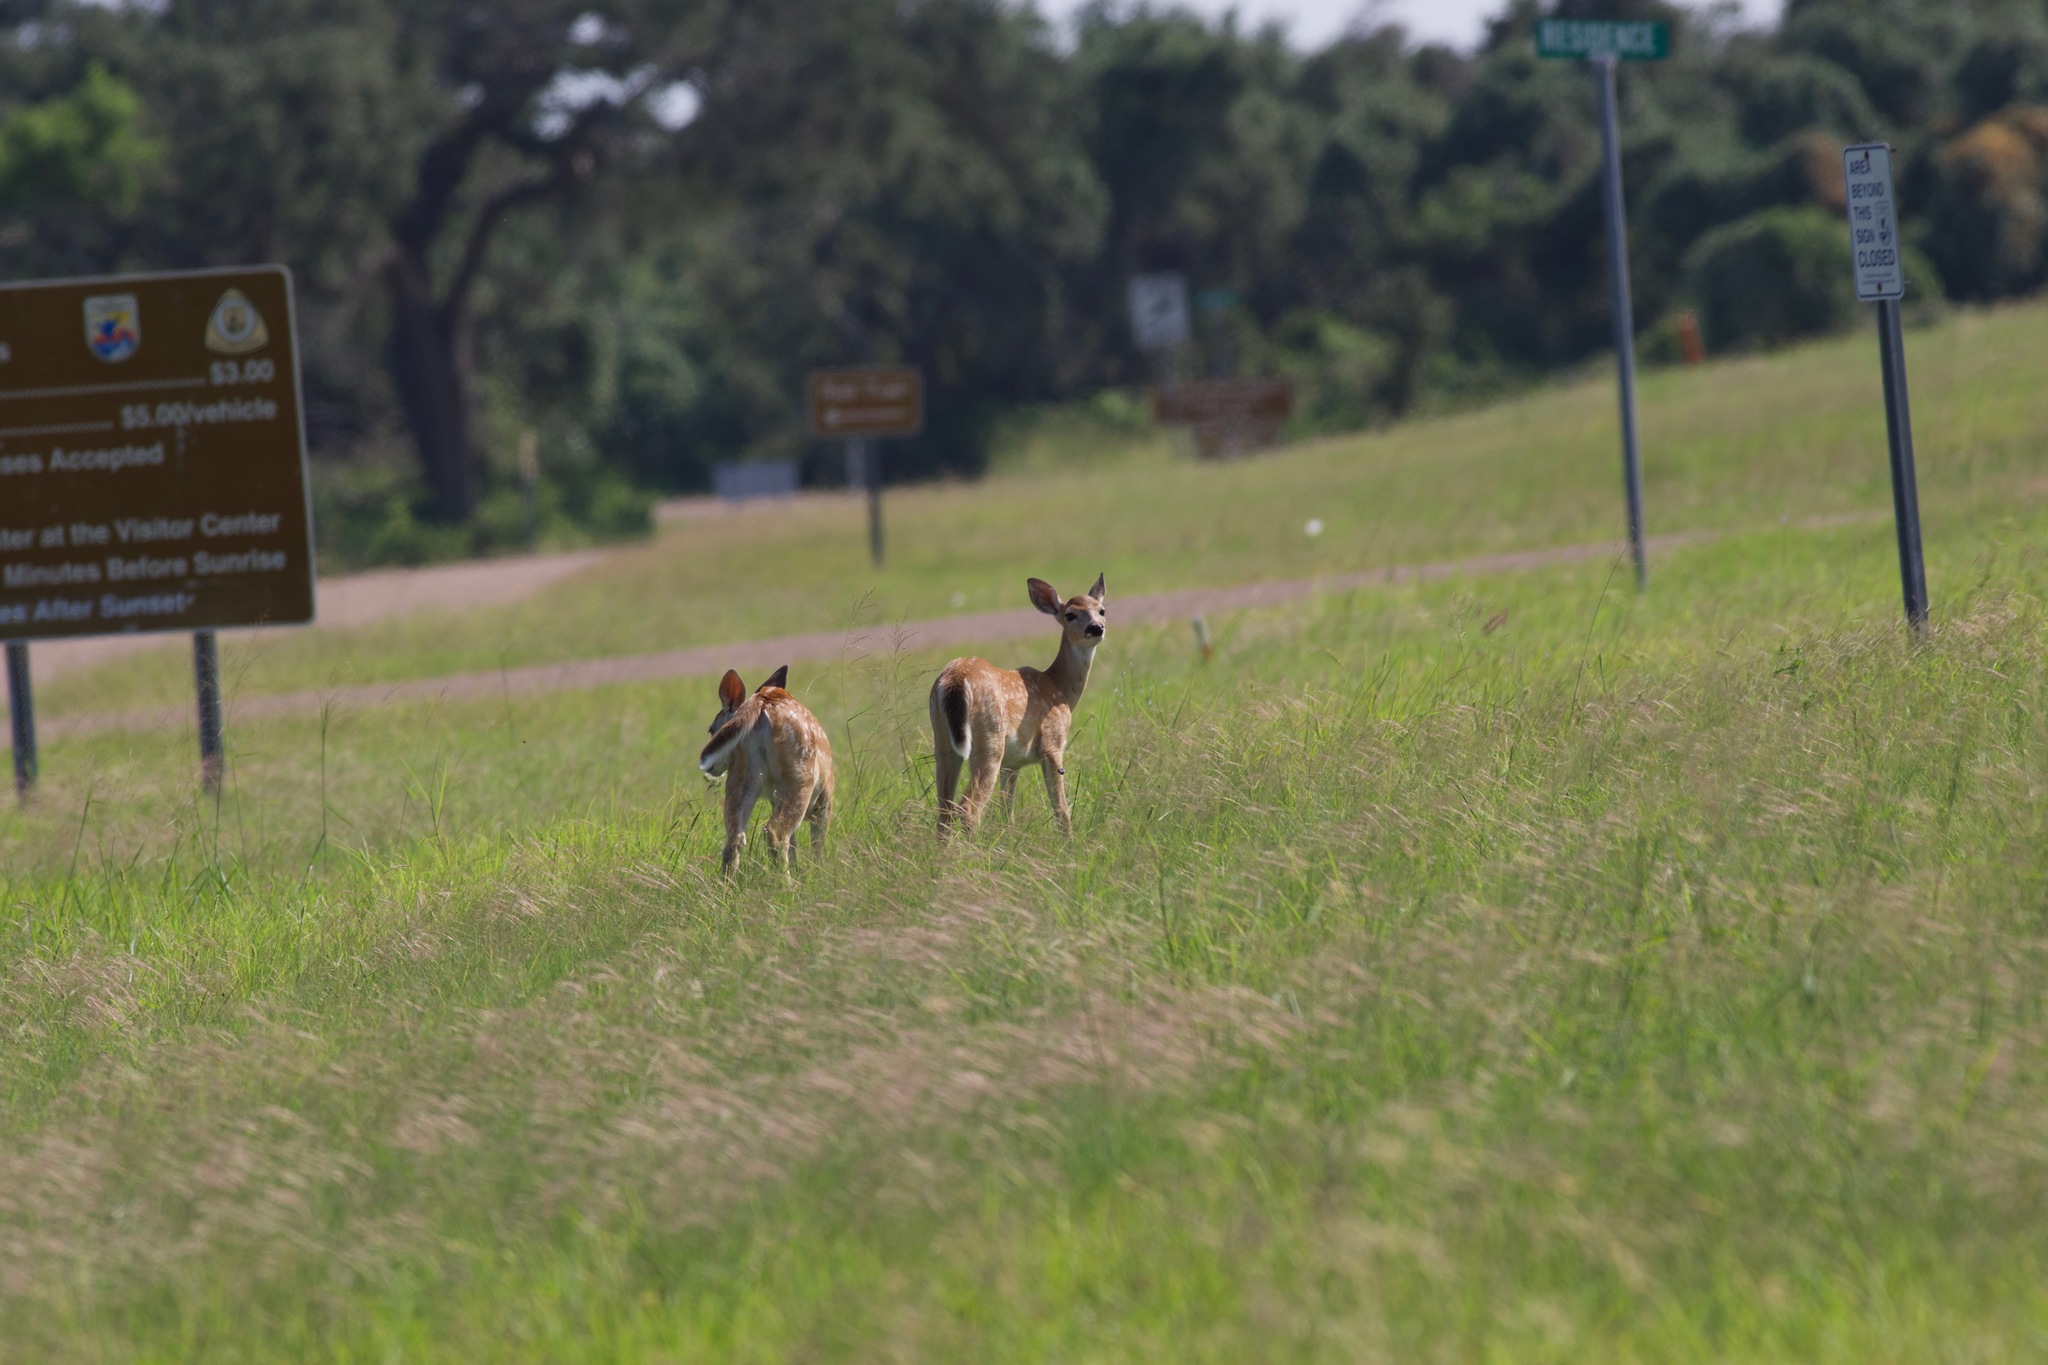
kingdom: Animalia
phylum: Chordata
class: Mammalia
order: Artiodactyla
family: Cervidae
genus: Odocoileus
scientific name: Odocoileus virginianus
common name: White-tailed deer
